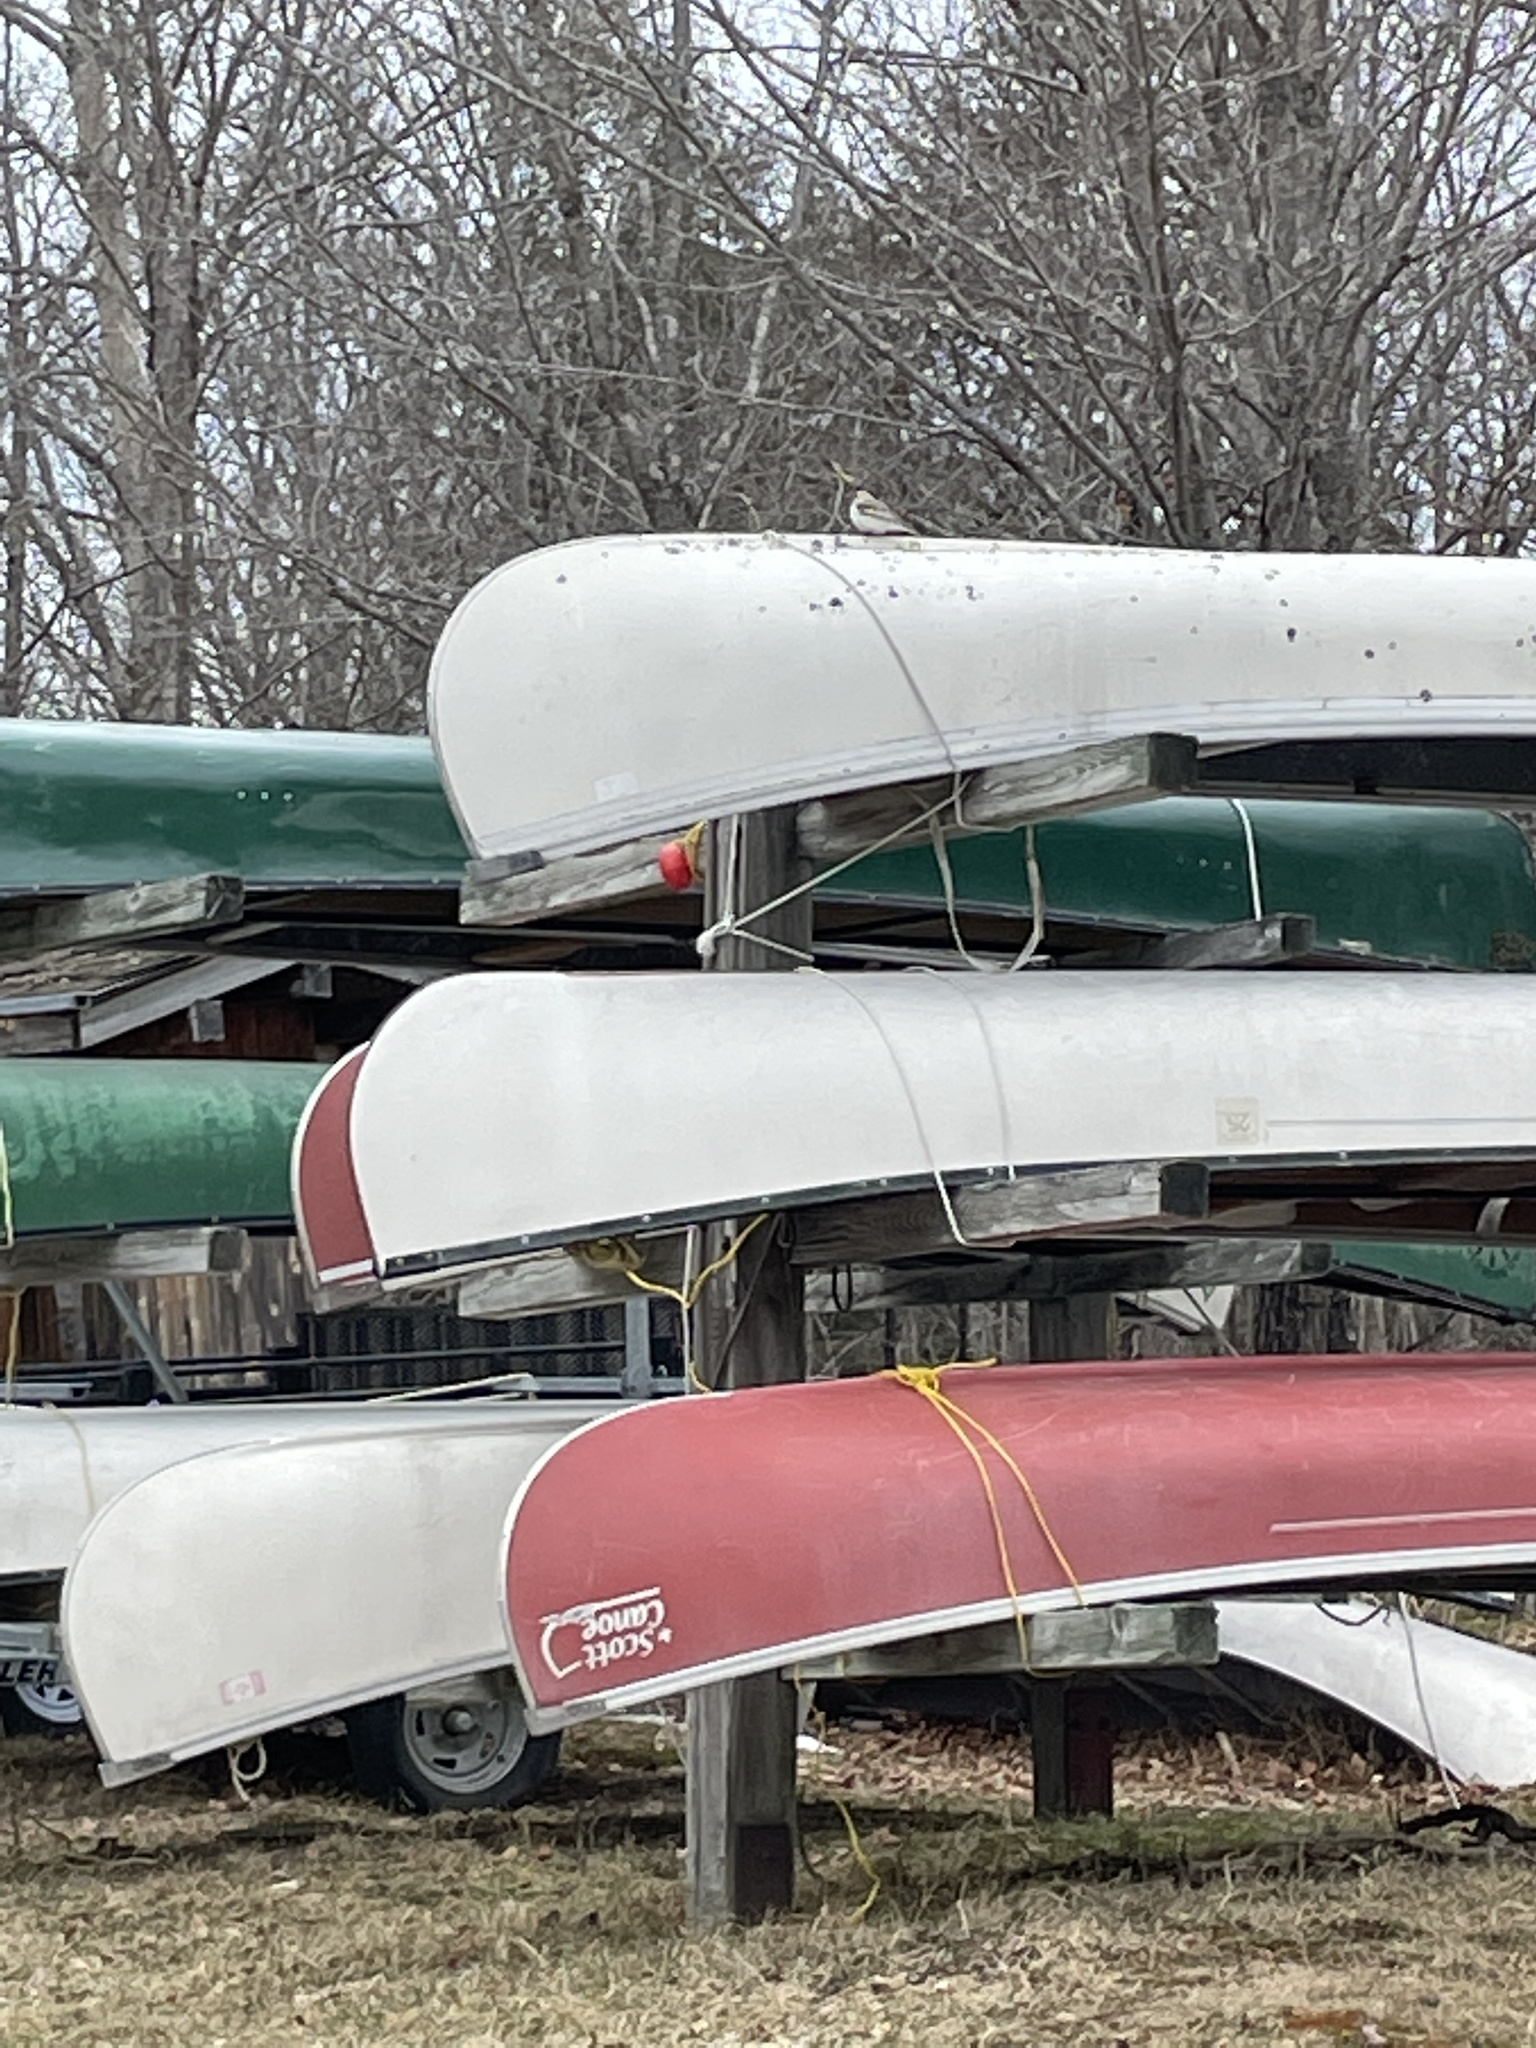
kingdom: Animalia
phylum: Chordata
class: Aves
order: Passeriformes
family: Calcariidae
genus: Plectrophenax
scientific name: Plectrophenax nivalis
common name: Snow bunting
